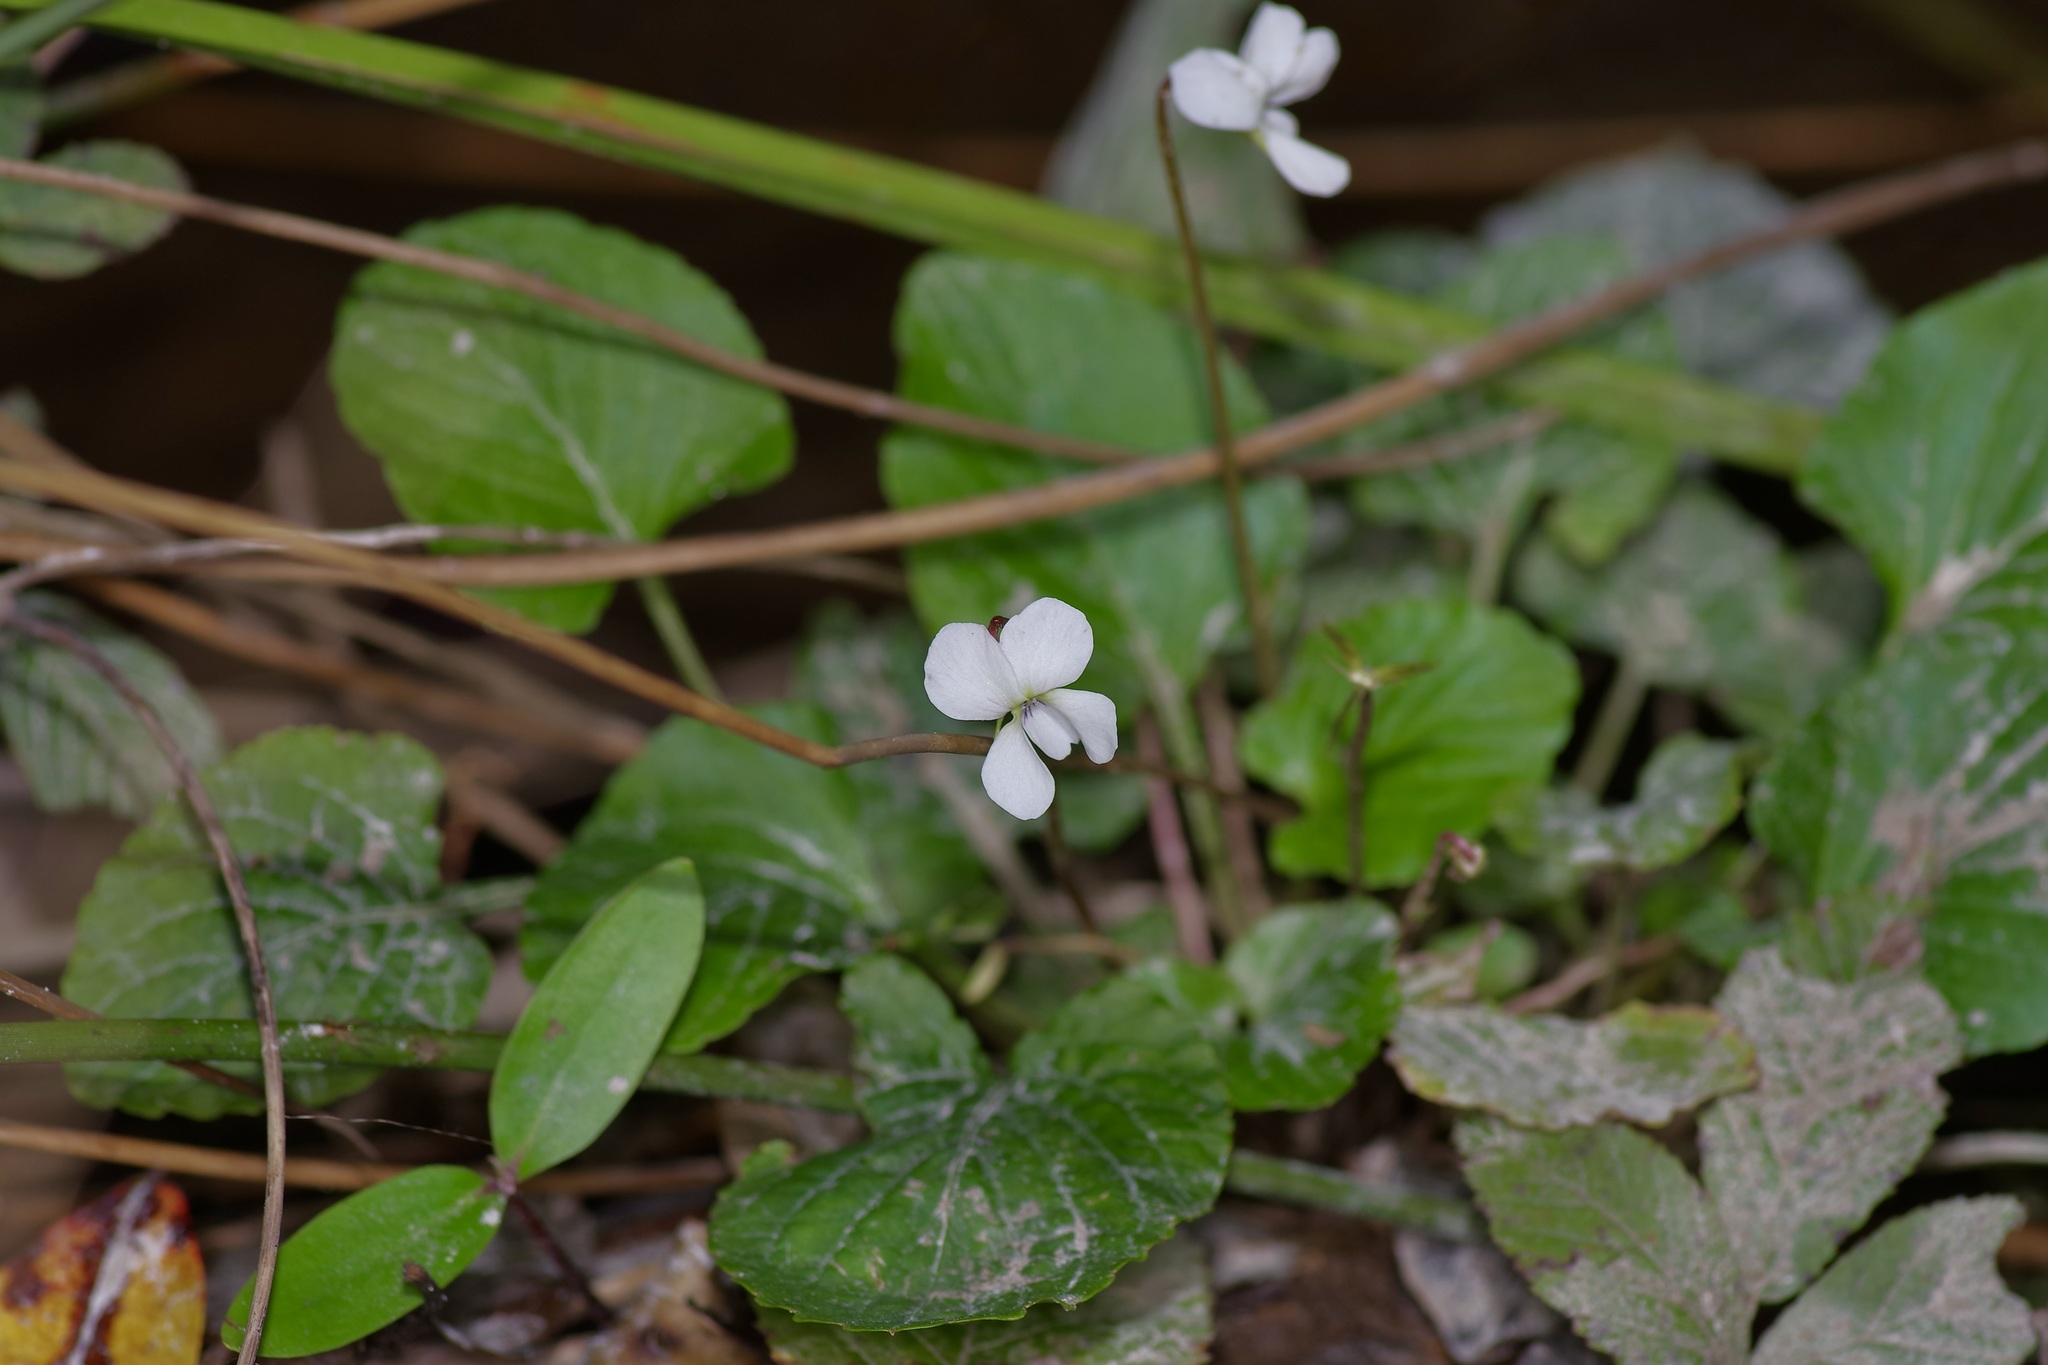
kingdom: Plantae
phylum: Tracheophyta
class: Magnoliopsida
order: Malpighiales
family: Violaceae
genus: Viola
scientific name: Viola primulifolia
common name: Primrose-leaf violet
